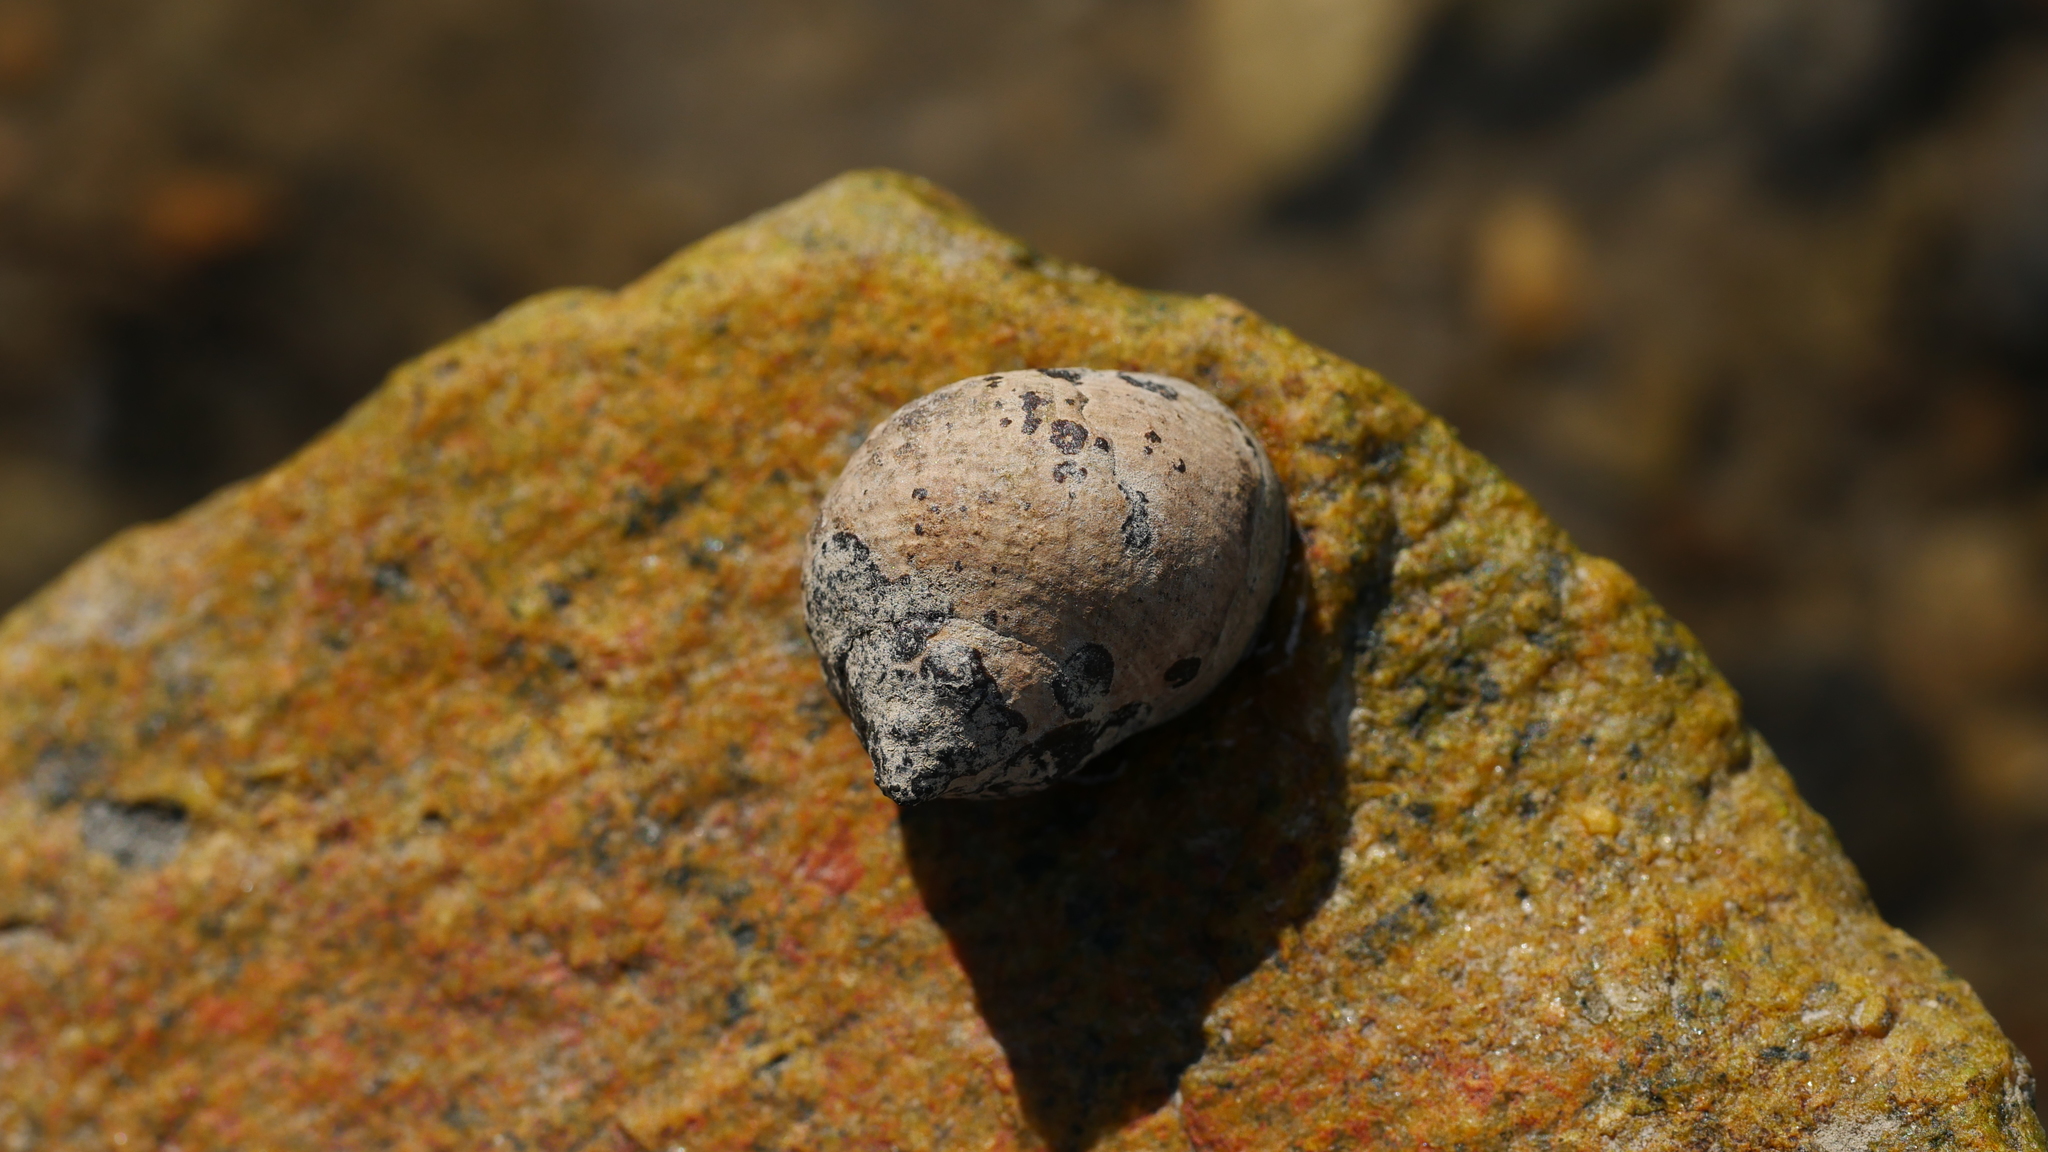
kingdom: Animalia
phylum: Mollusca
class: Gastropoda
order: Littorinimorpha
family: Littorinidae
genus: Littorina
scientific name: Littorina littorea
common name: Common periwinkle
